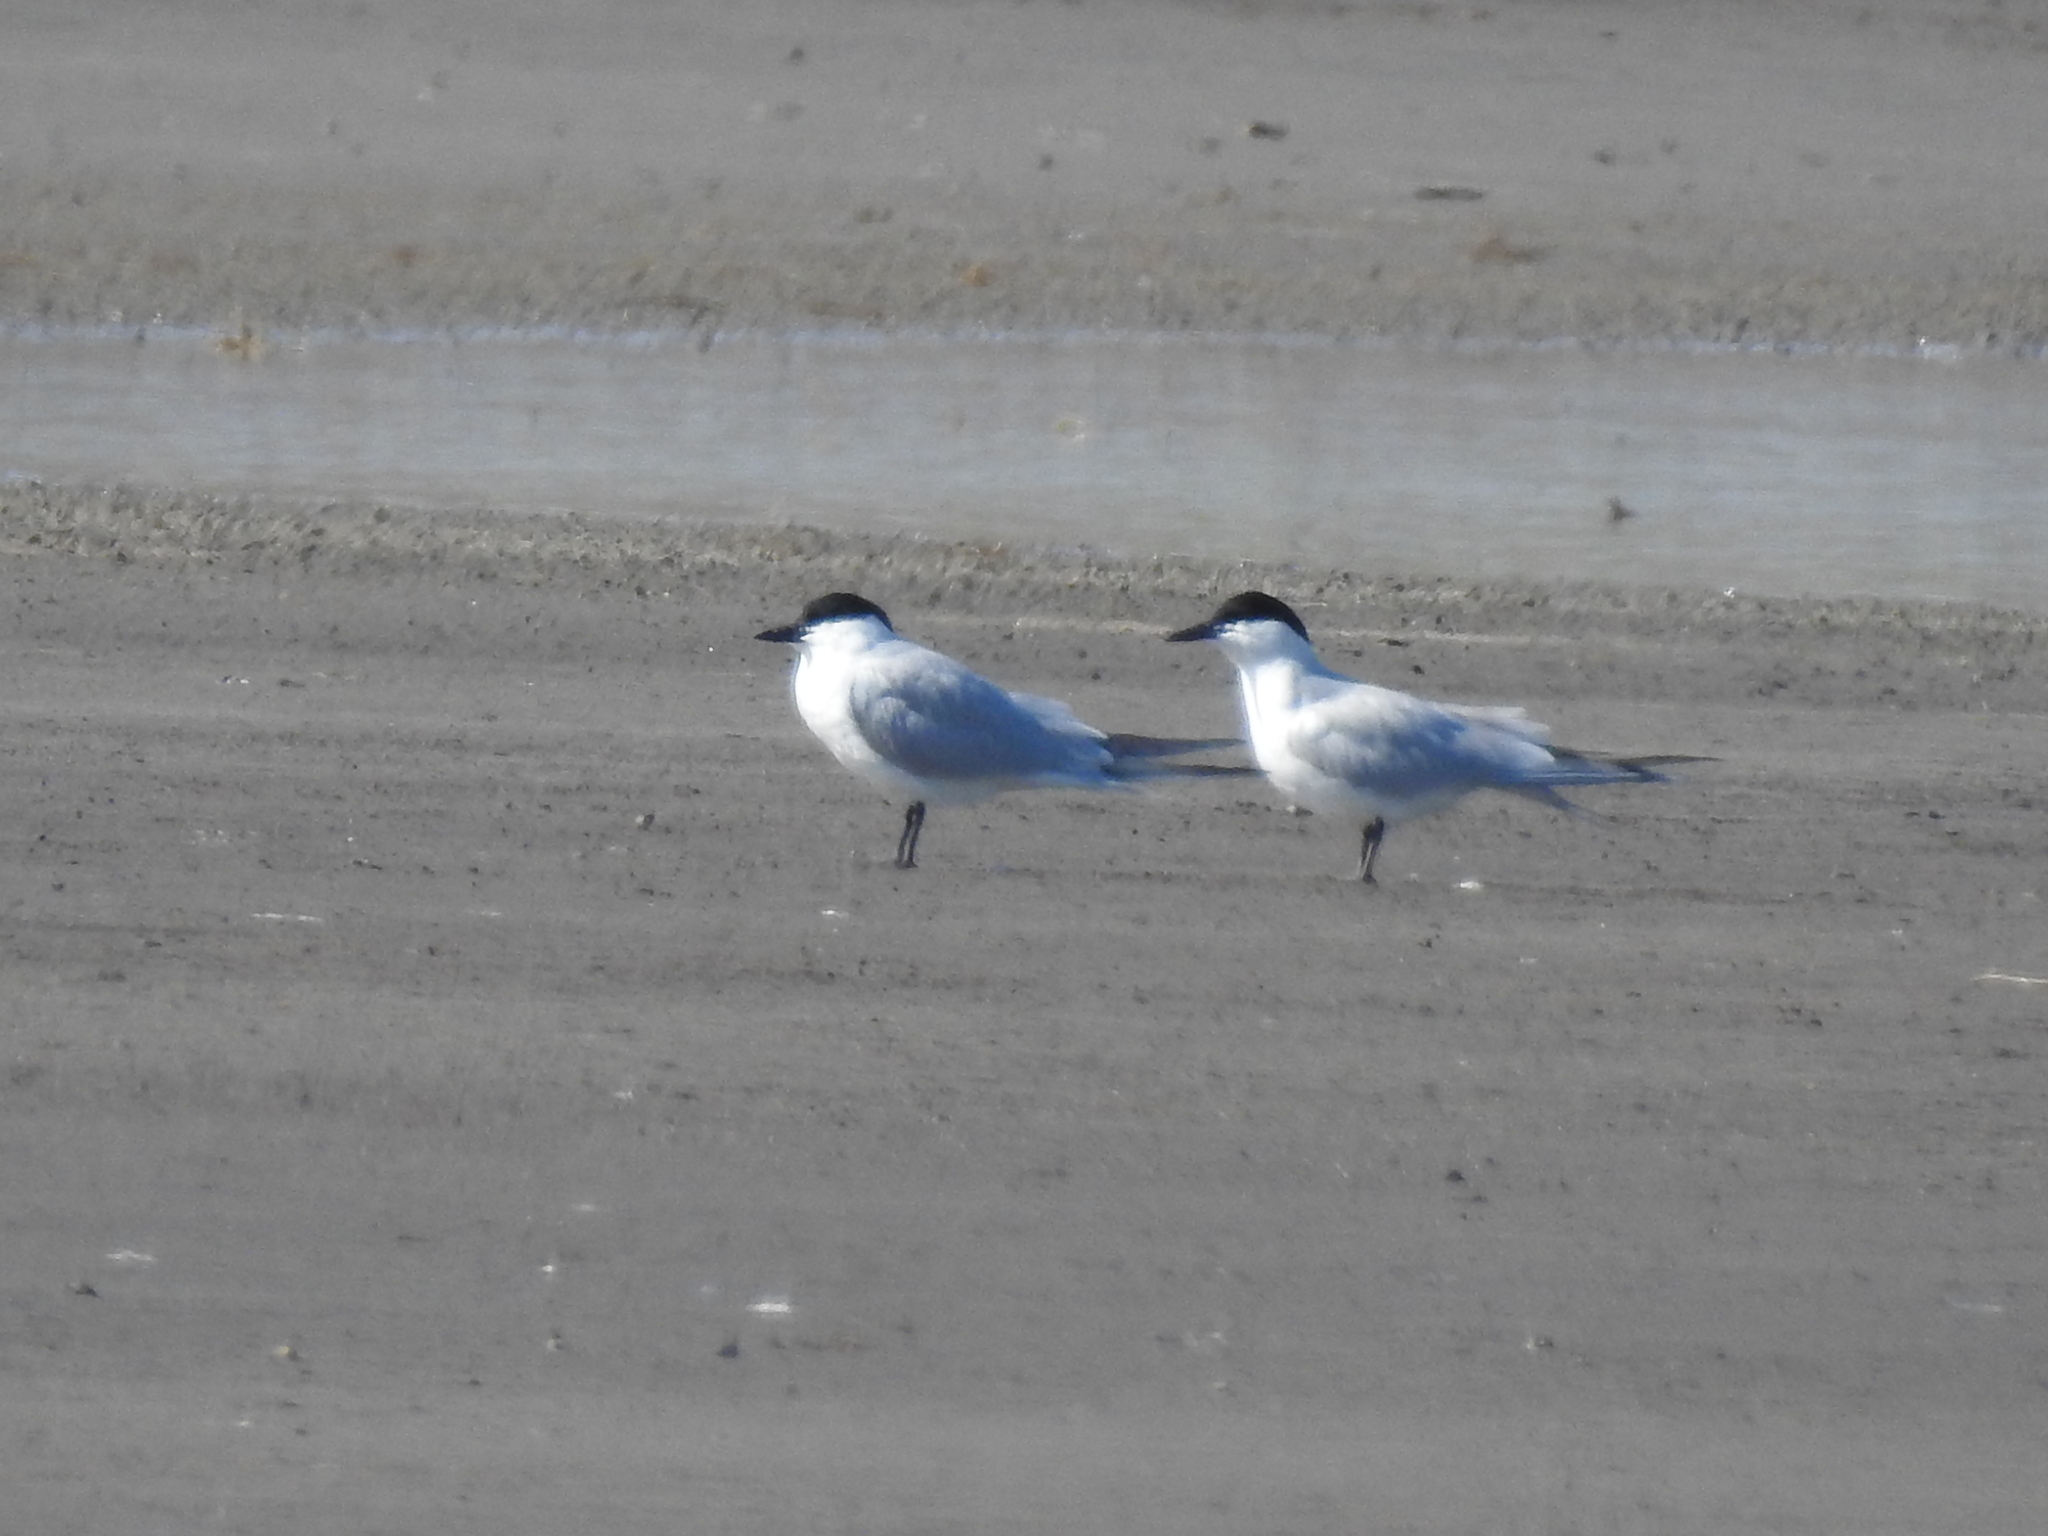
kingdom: Animalia
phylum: Chordata
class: Aves
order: Charadriiformes
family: Laridae
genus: Gelochelidon
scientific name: Gelochelidon nilotica
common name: Gull-billed tern
